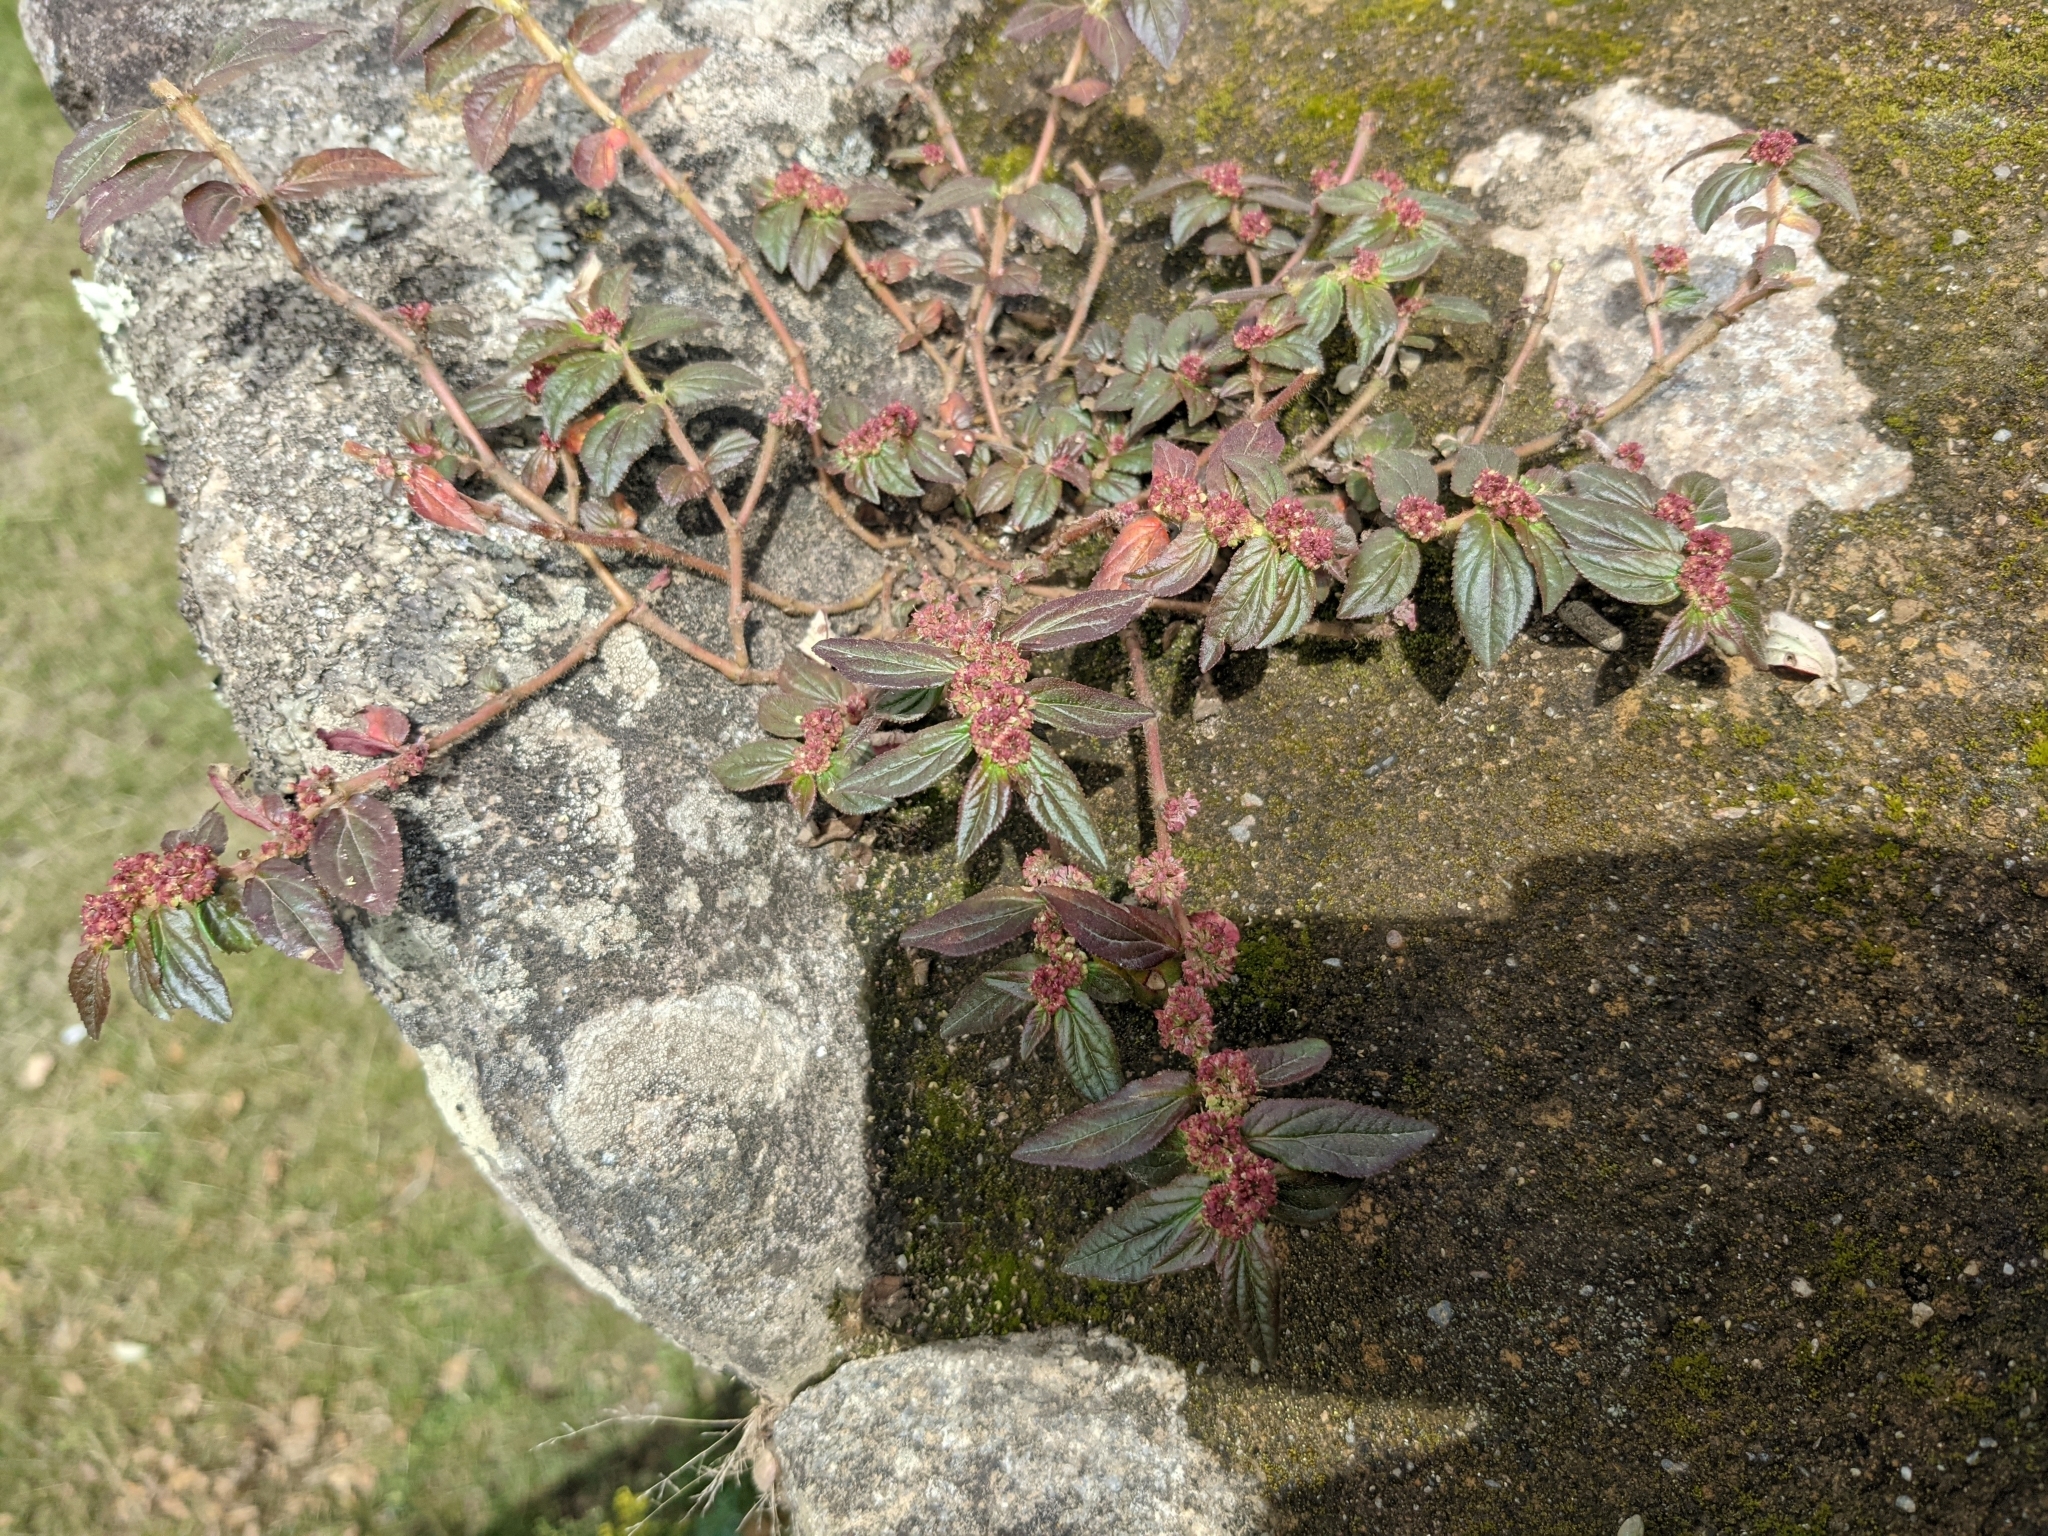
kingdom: Plantae
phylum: Tracheophyta
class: Magnoliopsida
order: Malpighiales
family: Euphorbiaceae
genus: Euphorbia
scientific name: Euphorbia hirta
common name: Pillpod sandmat
